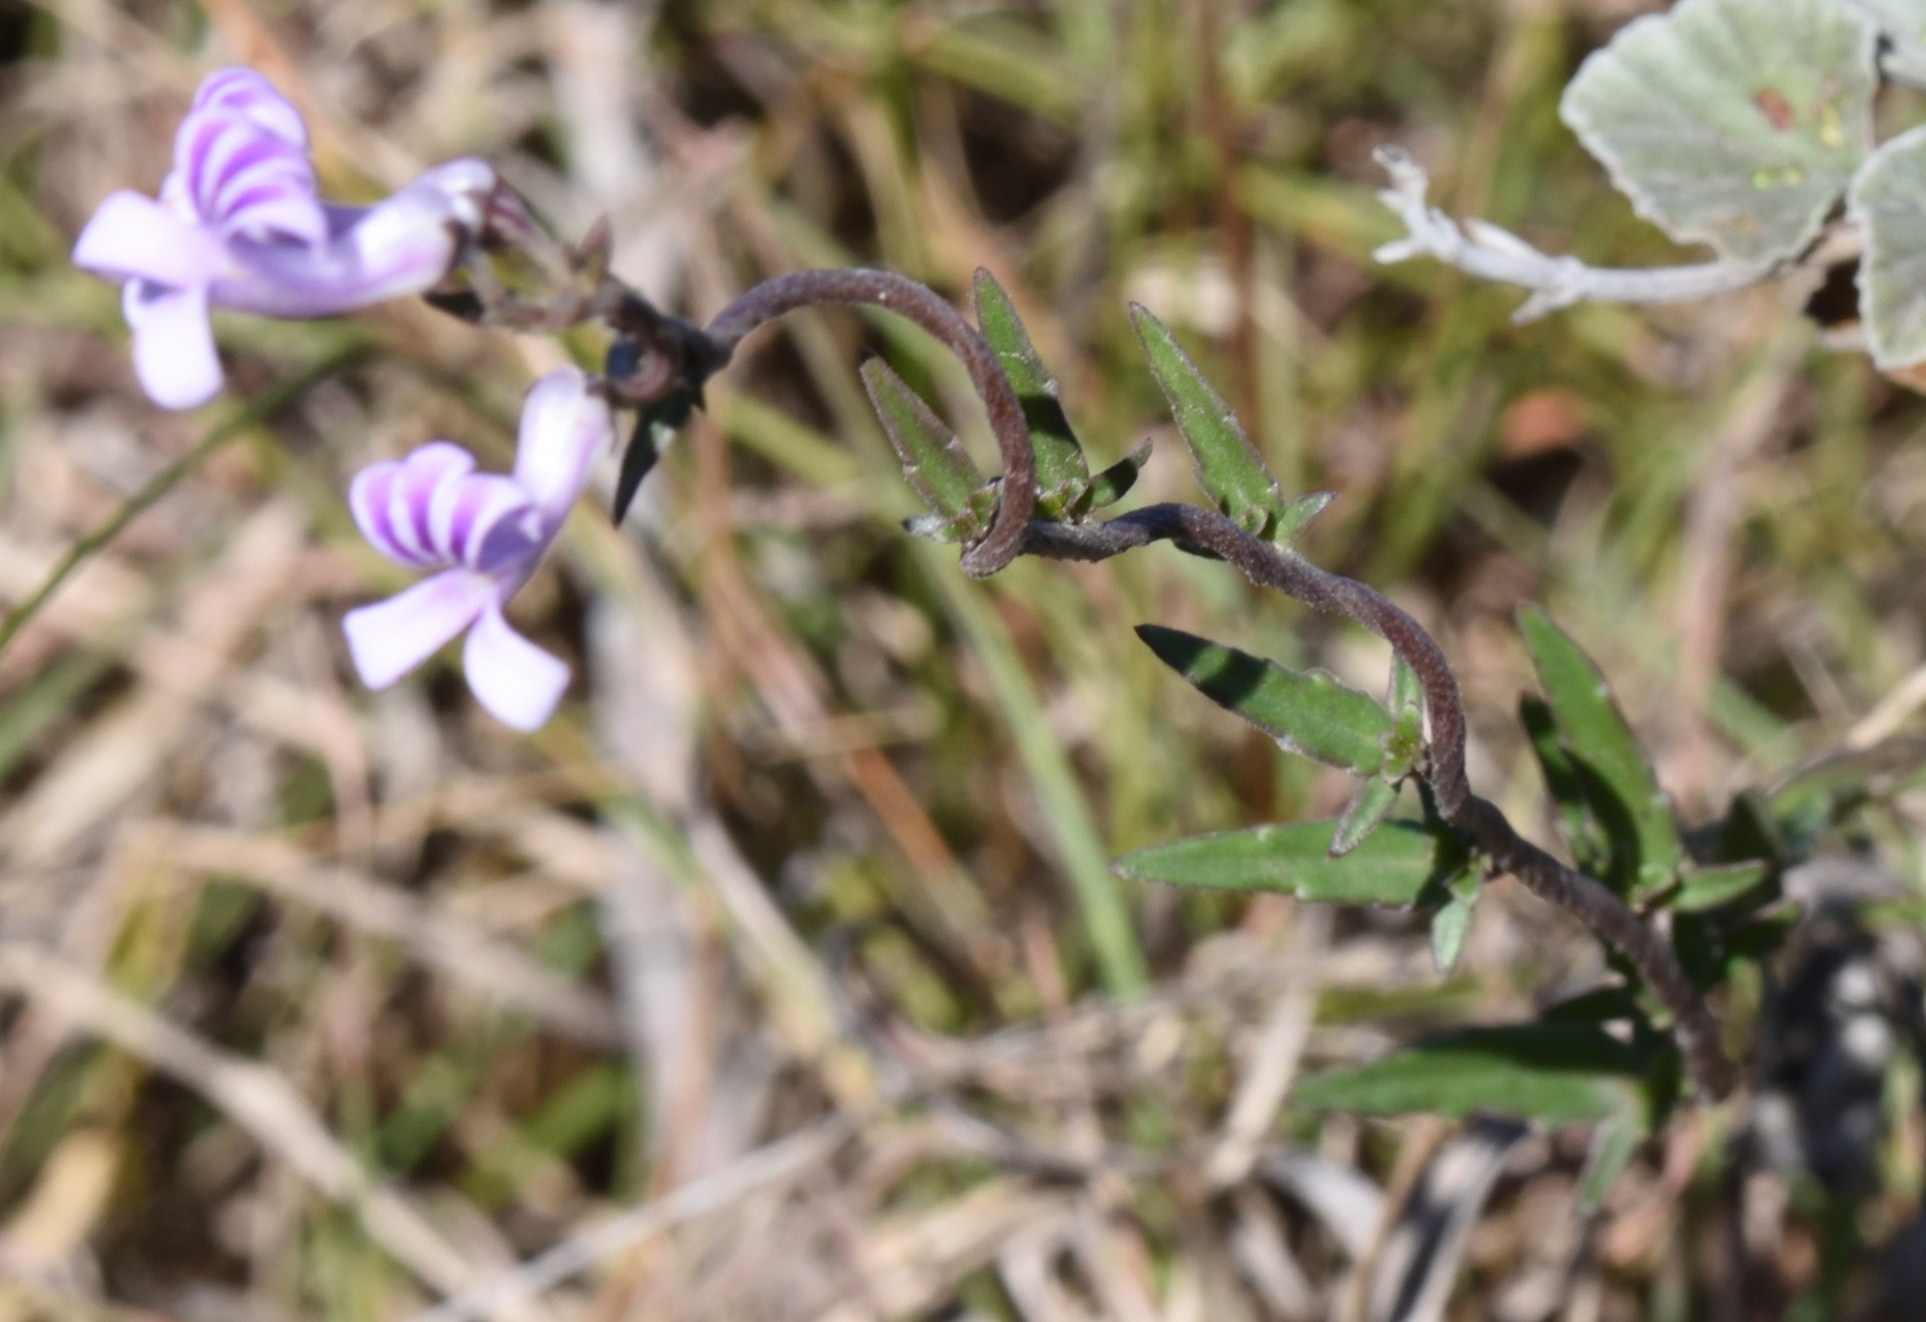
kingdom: Plantae
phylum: Tracheophyta
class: Magnoliopsida
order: Asterales
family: Campanulaceae
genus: Cyphia
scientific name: Cyphia heterophylla
